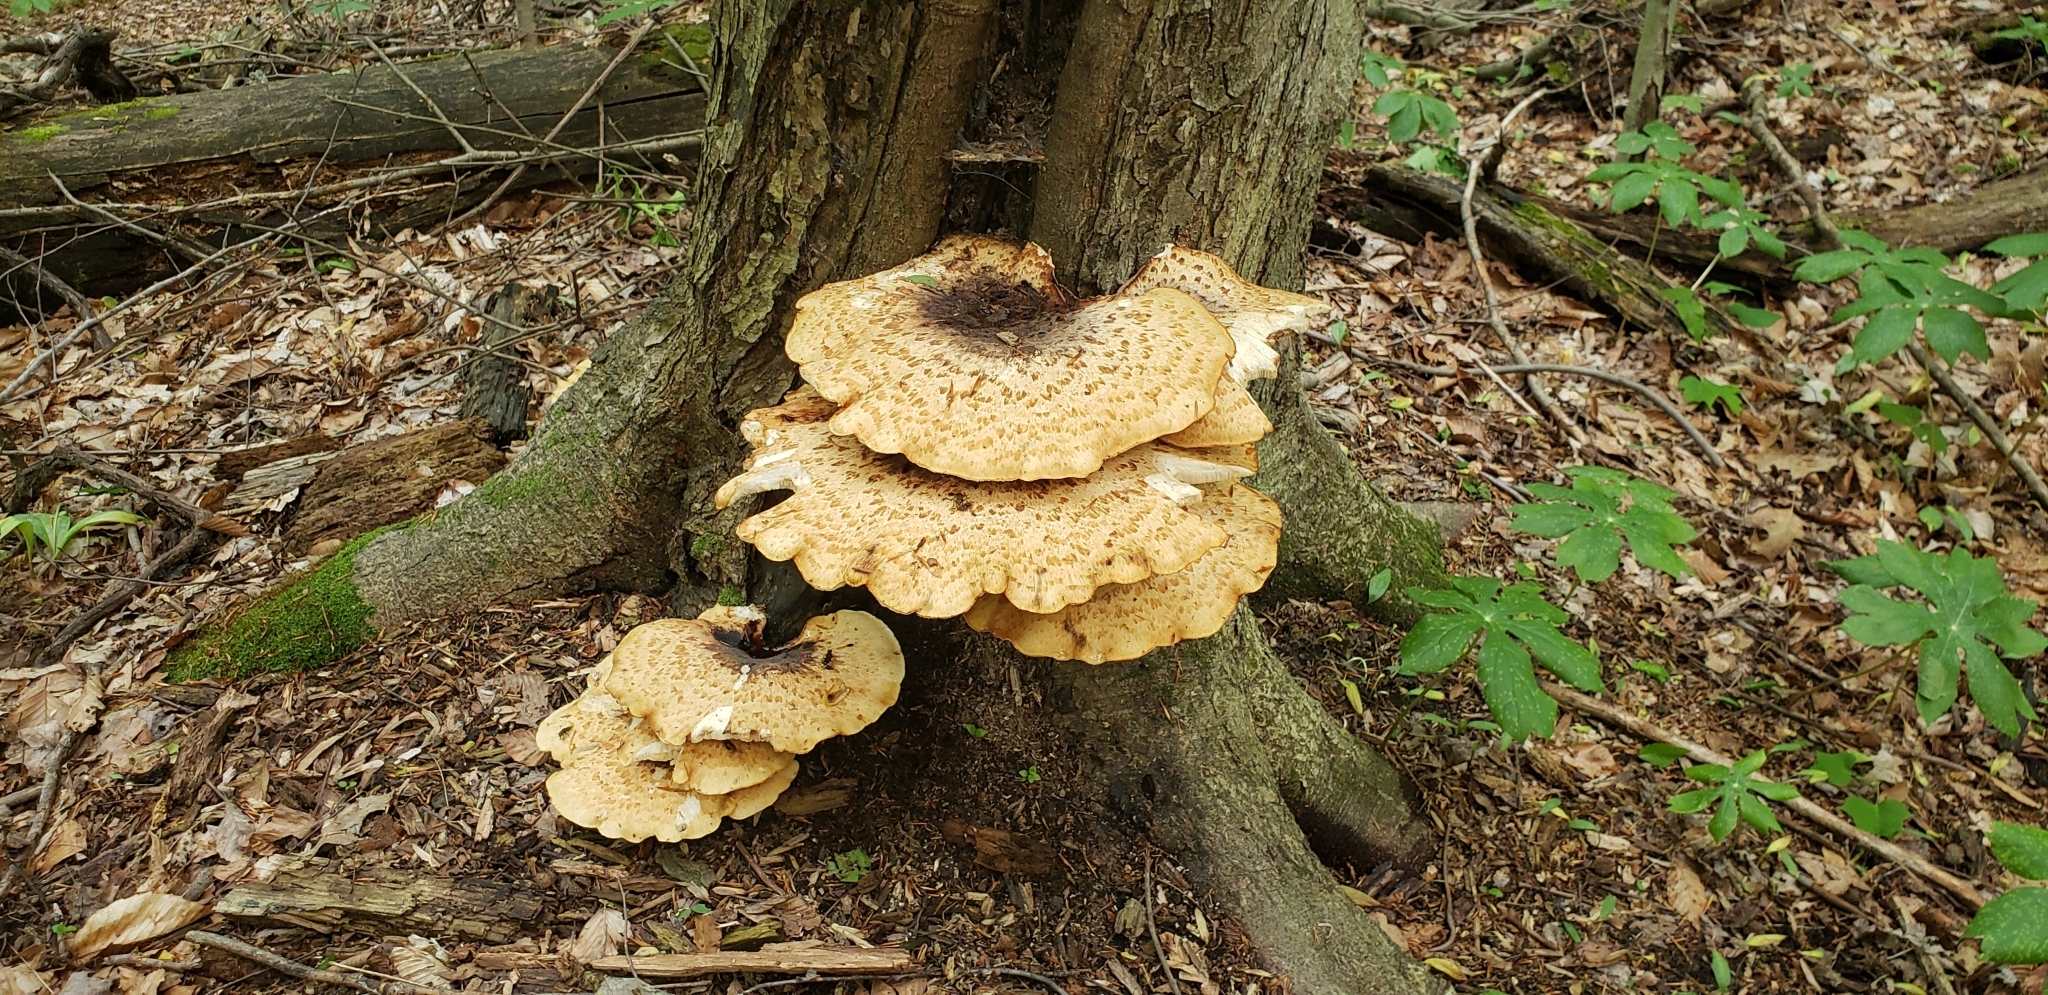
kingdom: Fungi
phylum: Basidiomycota
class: Agaricomycetes
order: Polyporales
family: Polyporaceae
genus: Cerioporus
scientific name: Cerioporus squamosus
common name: Dryad's saddle
